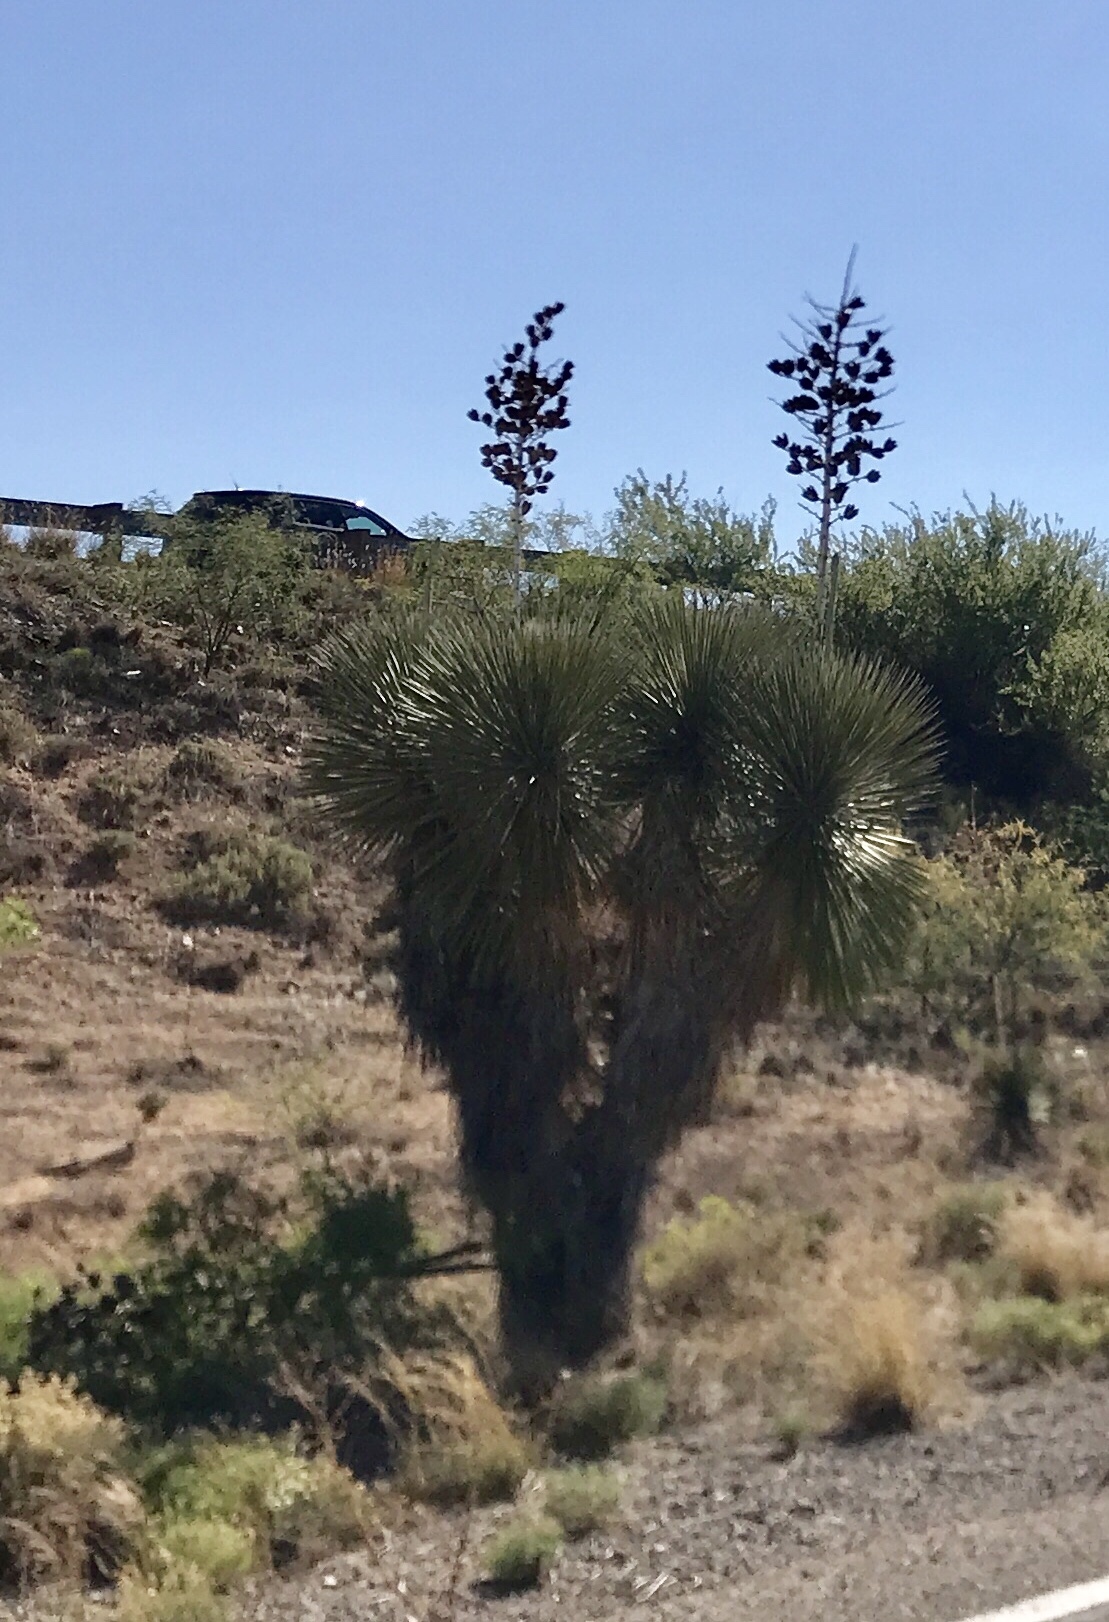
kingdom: Plantae
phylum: Tracheophyta
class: Liliopsida
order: Asparagales
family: Asparagaceae
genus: Yucca
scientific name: Yucca elata
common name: Palmella
